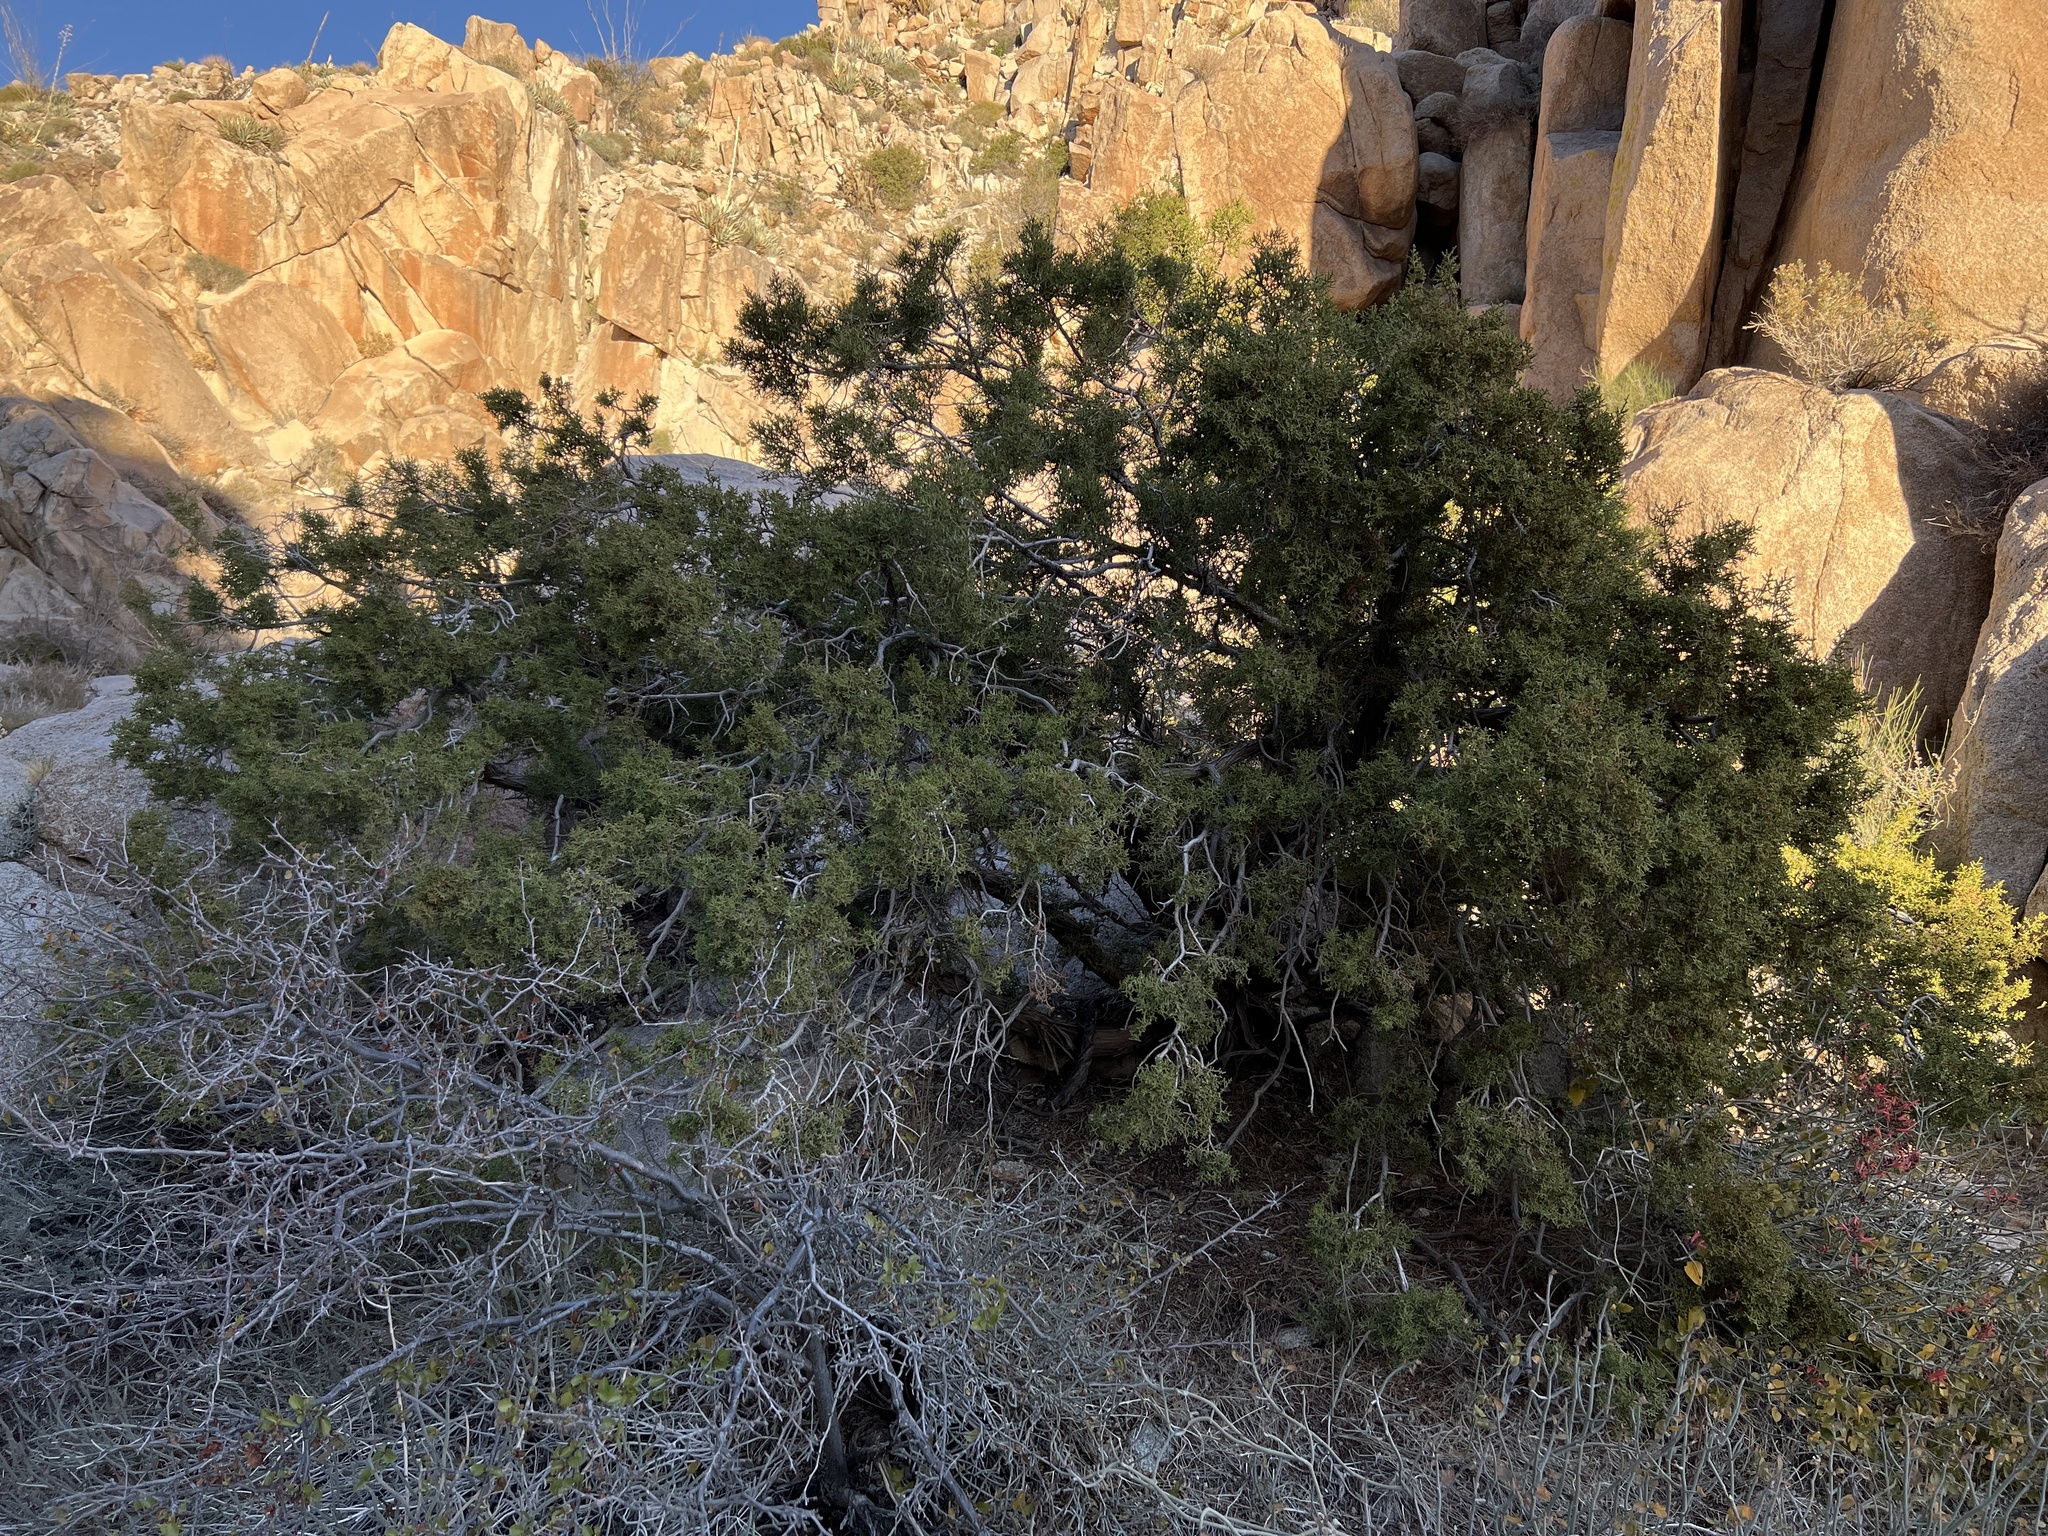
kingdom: Plantae
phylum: Tracheophyta
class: Pinopsida
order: Pinales
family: Cupressaceae
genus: Juniperus
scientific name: Juniperus californica
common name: California juniper
